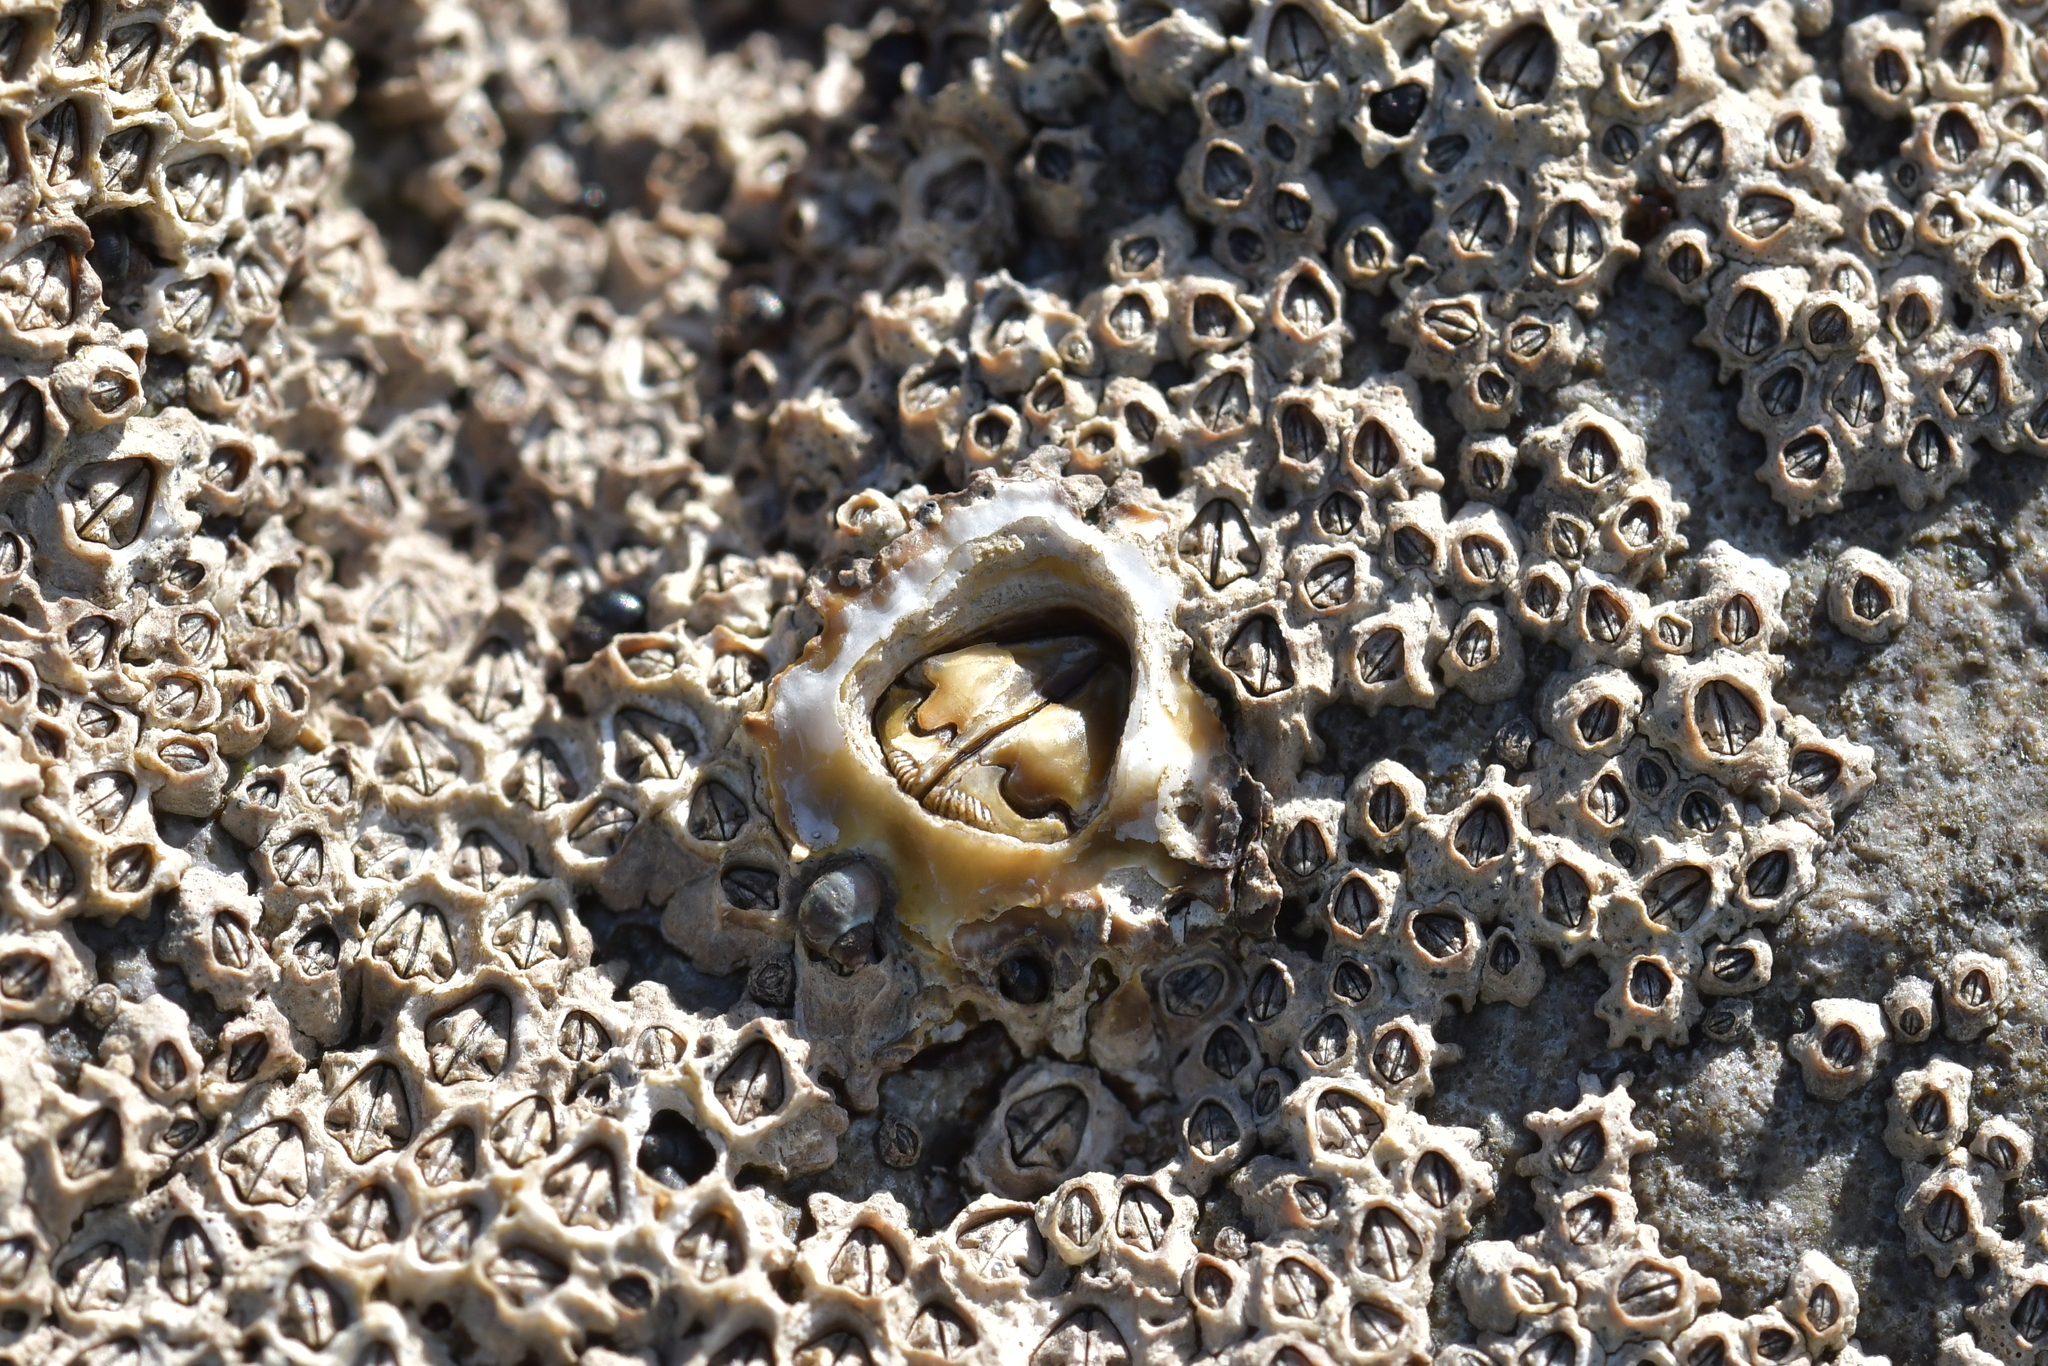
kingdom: Animalia
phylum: Arthropoda
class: Maxillopoda
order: Sessilia
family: Chthamalidae
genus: Chamaesipho
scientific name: Chamaesipho brunnea
